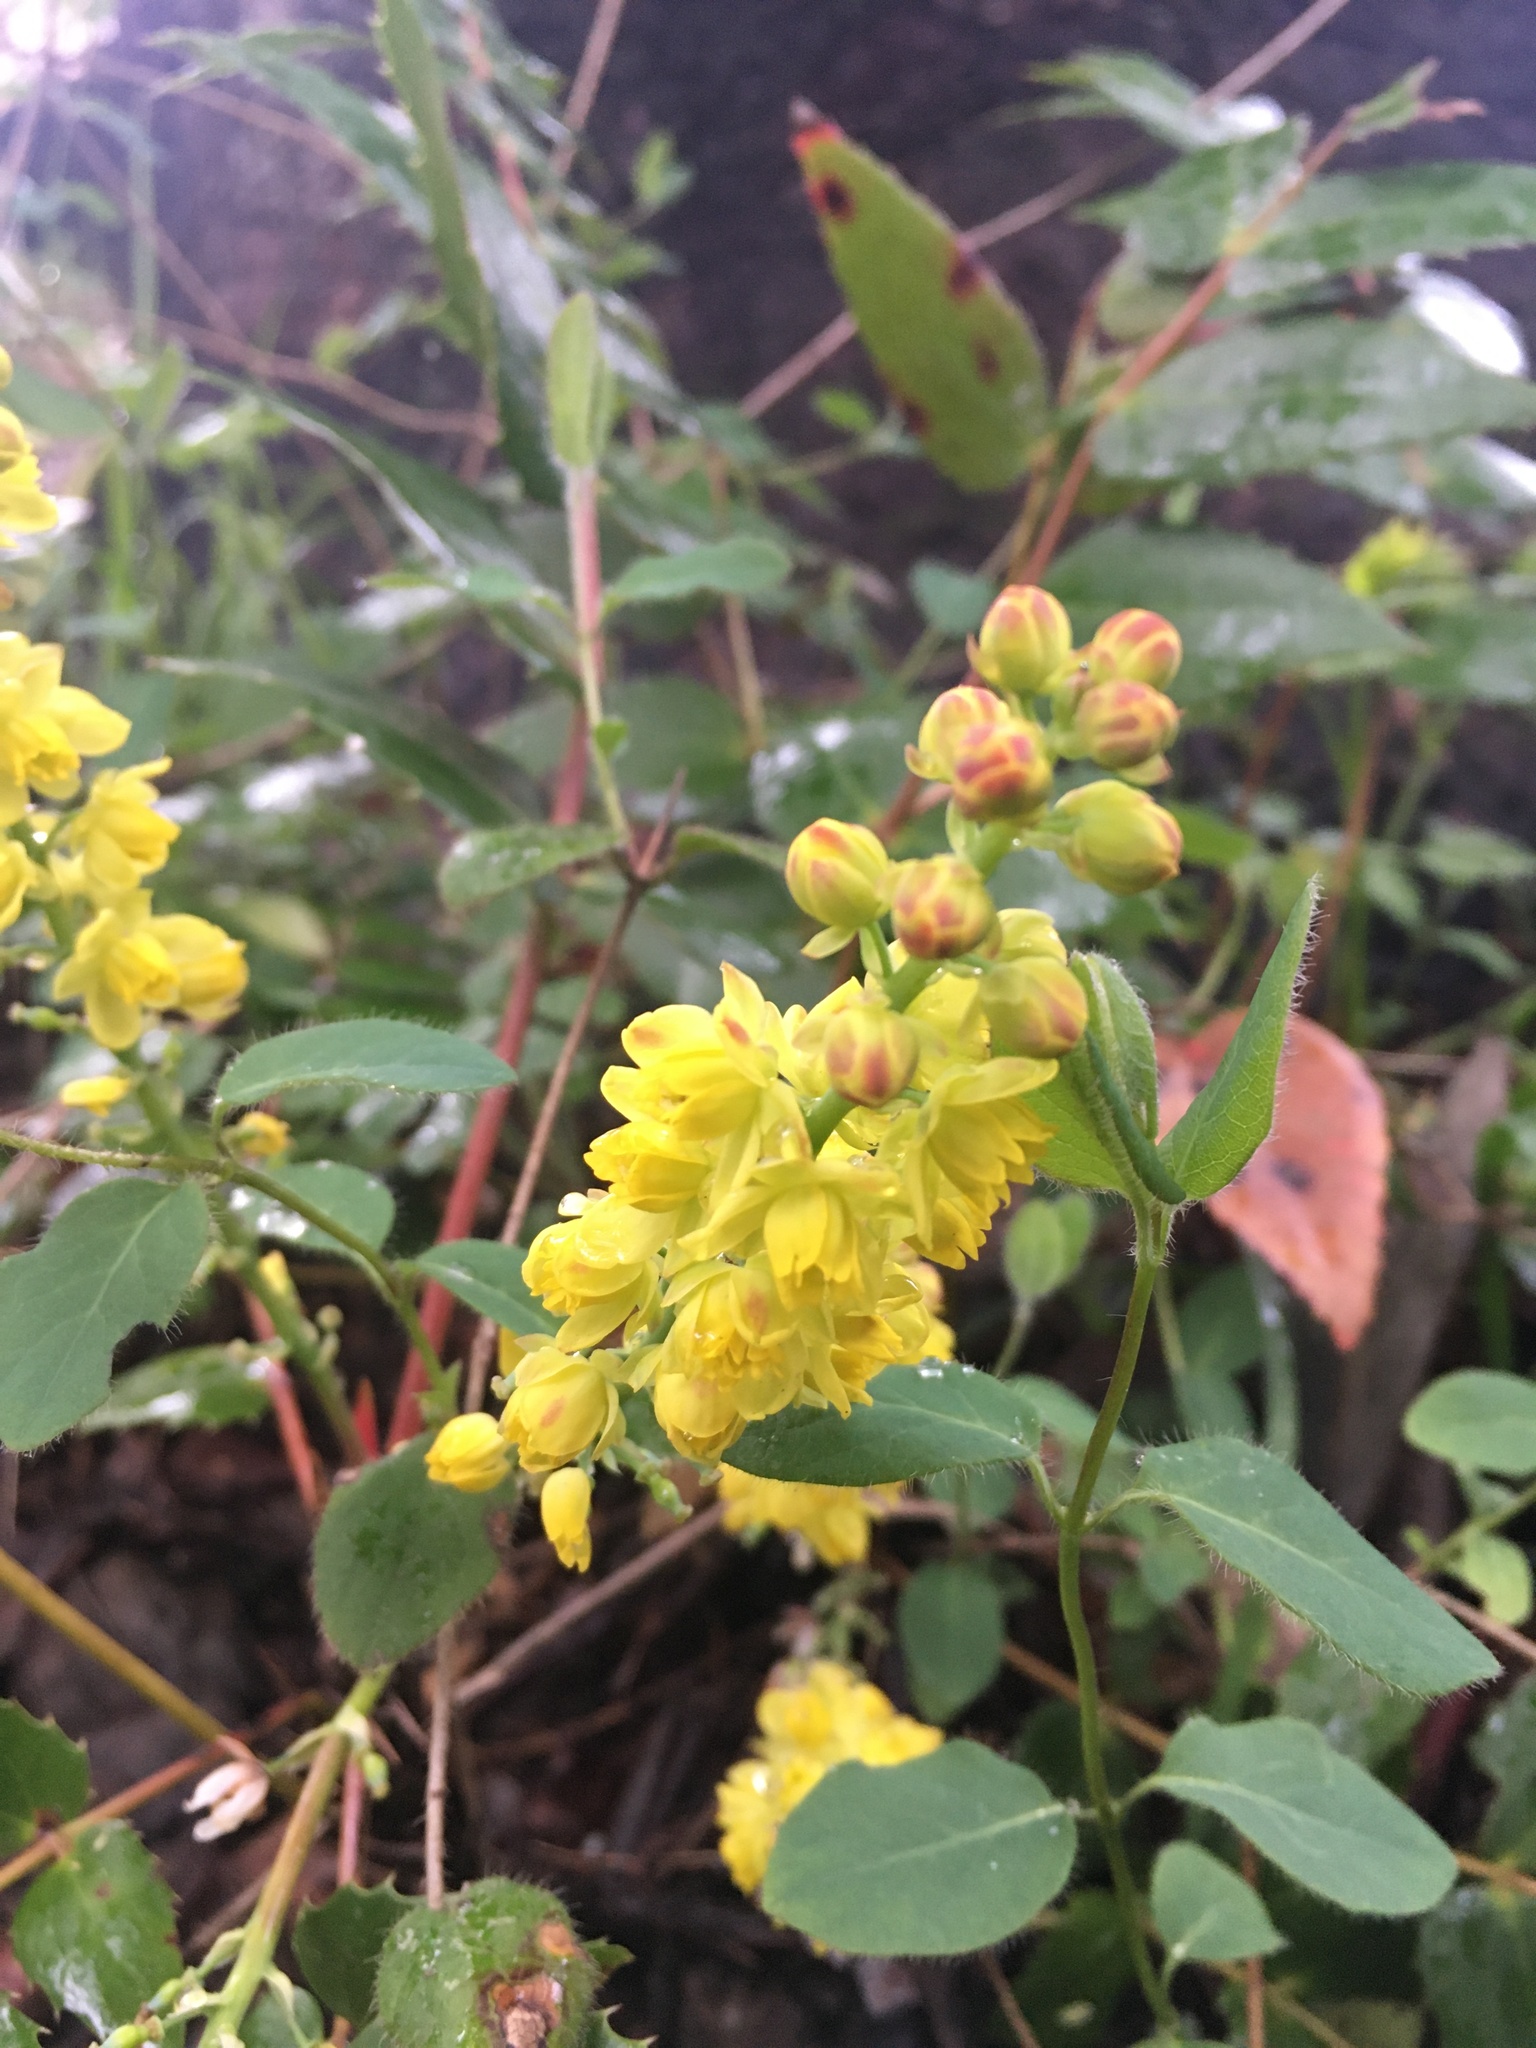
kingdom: Plantae
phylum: Tracheophyta
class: Magnoliopsida
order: Ranunculales
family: Berberidaceae
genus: Mahonia
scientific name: Mahonia nervosa
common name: Cascade oregon-grape
